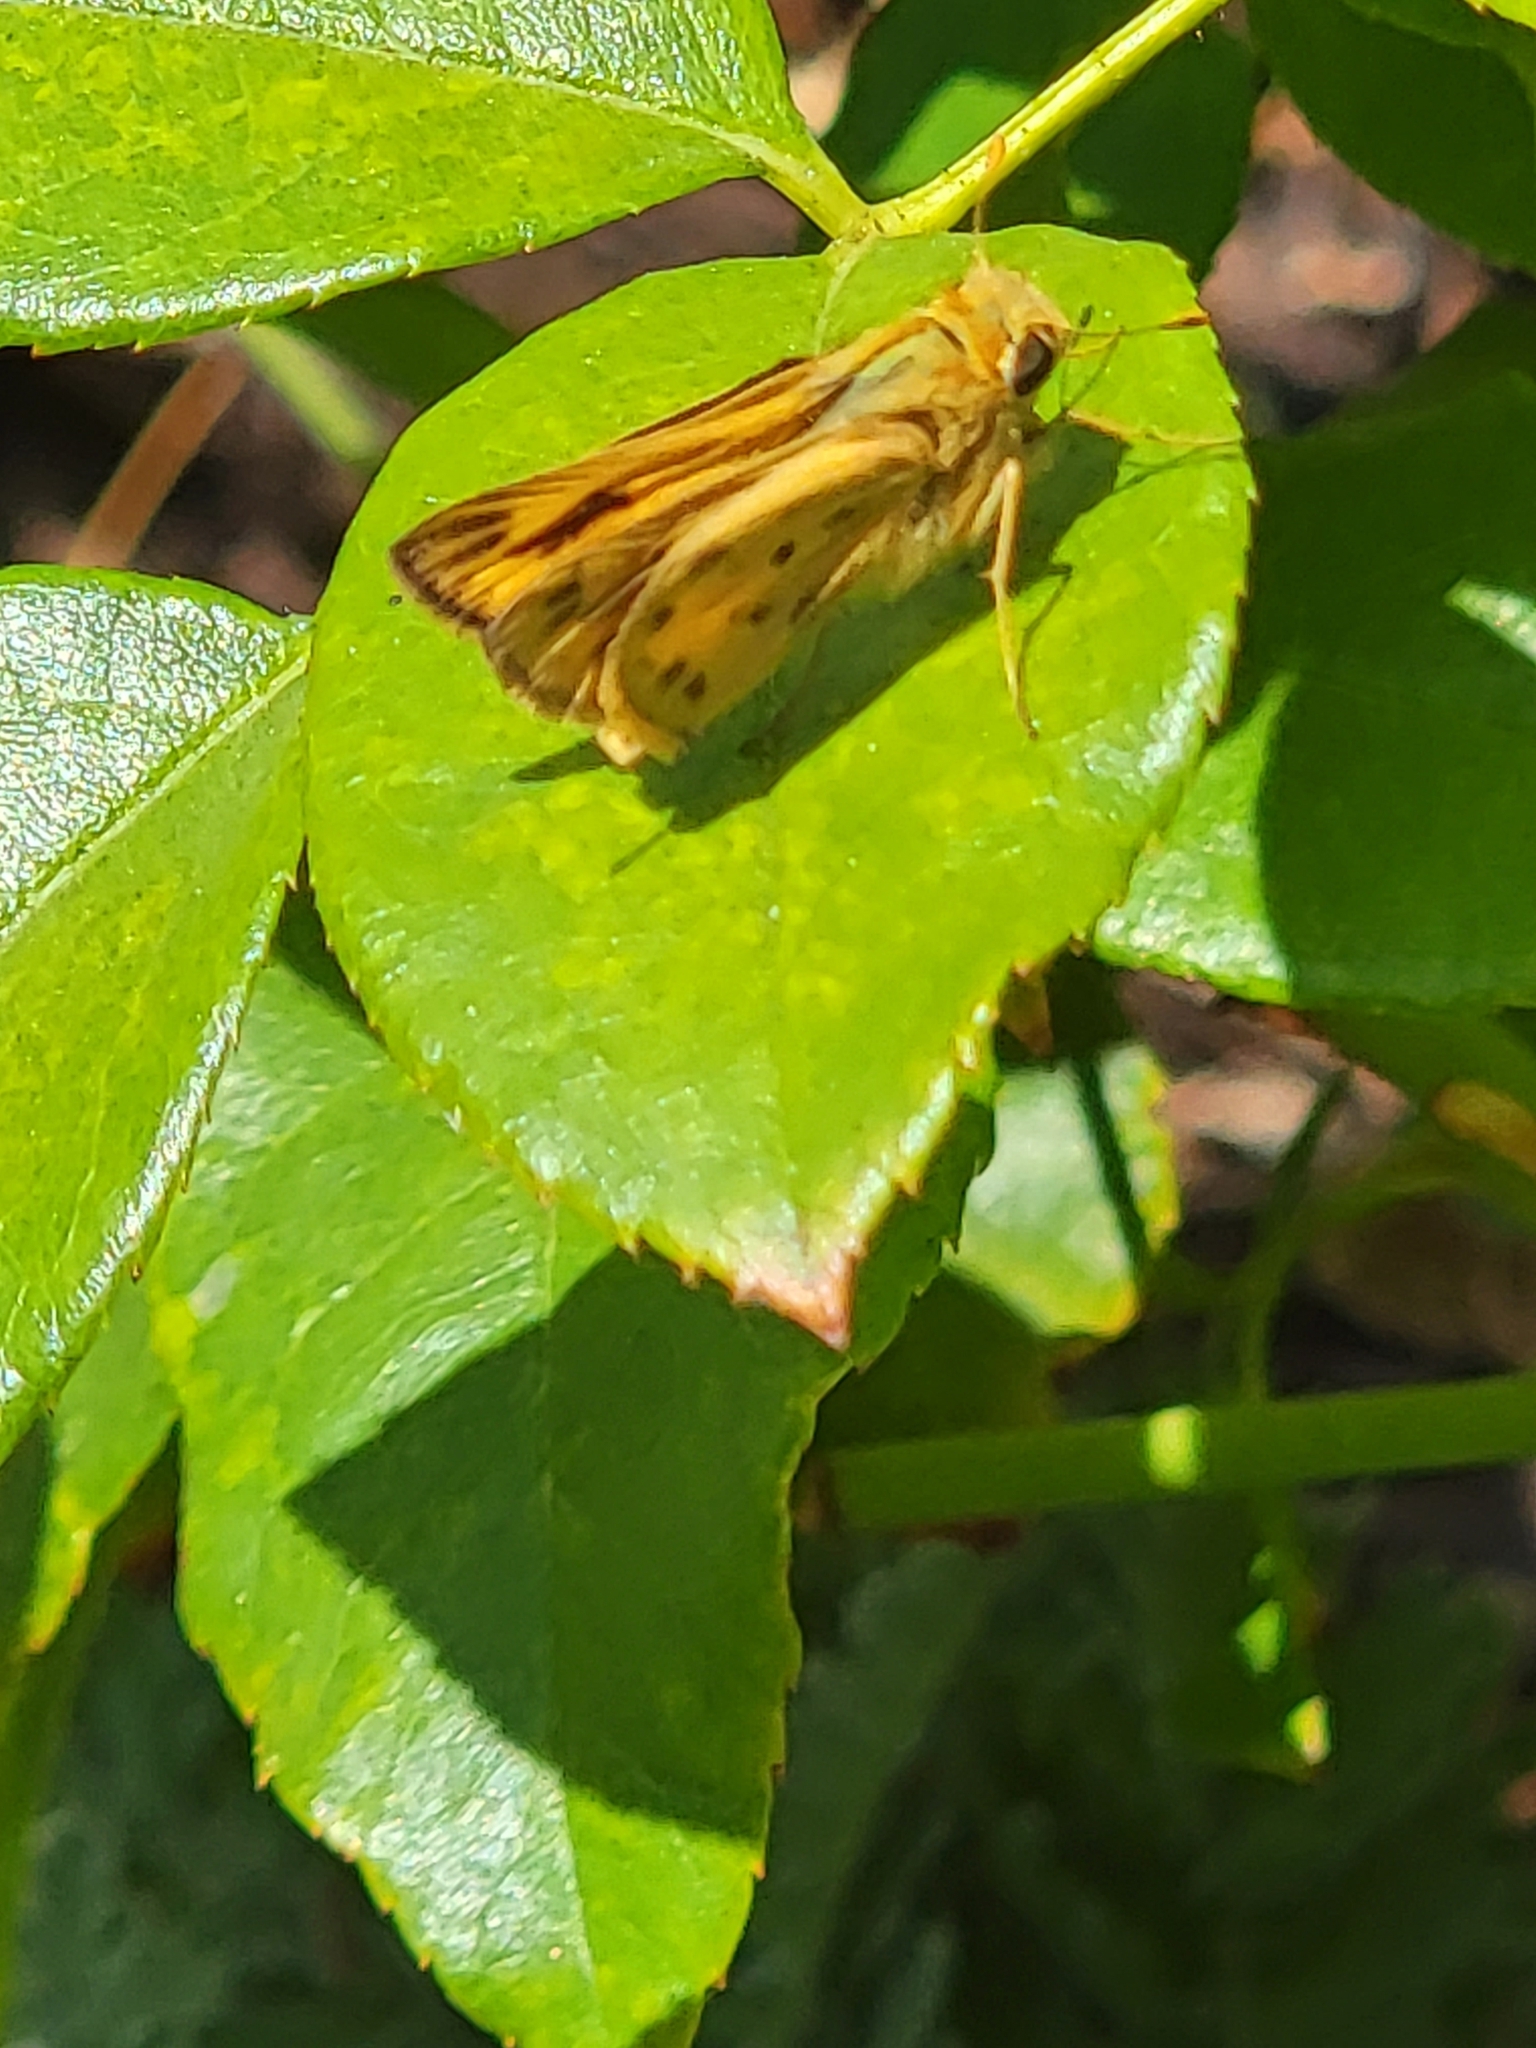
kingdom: Animalia
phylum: Arthropoda
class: Insecta
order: Lepidoptera
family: Hesperiidae
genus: Hylephila
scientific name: Hylephila phyleus
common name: Fiery skipper
